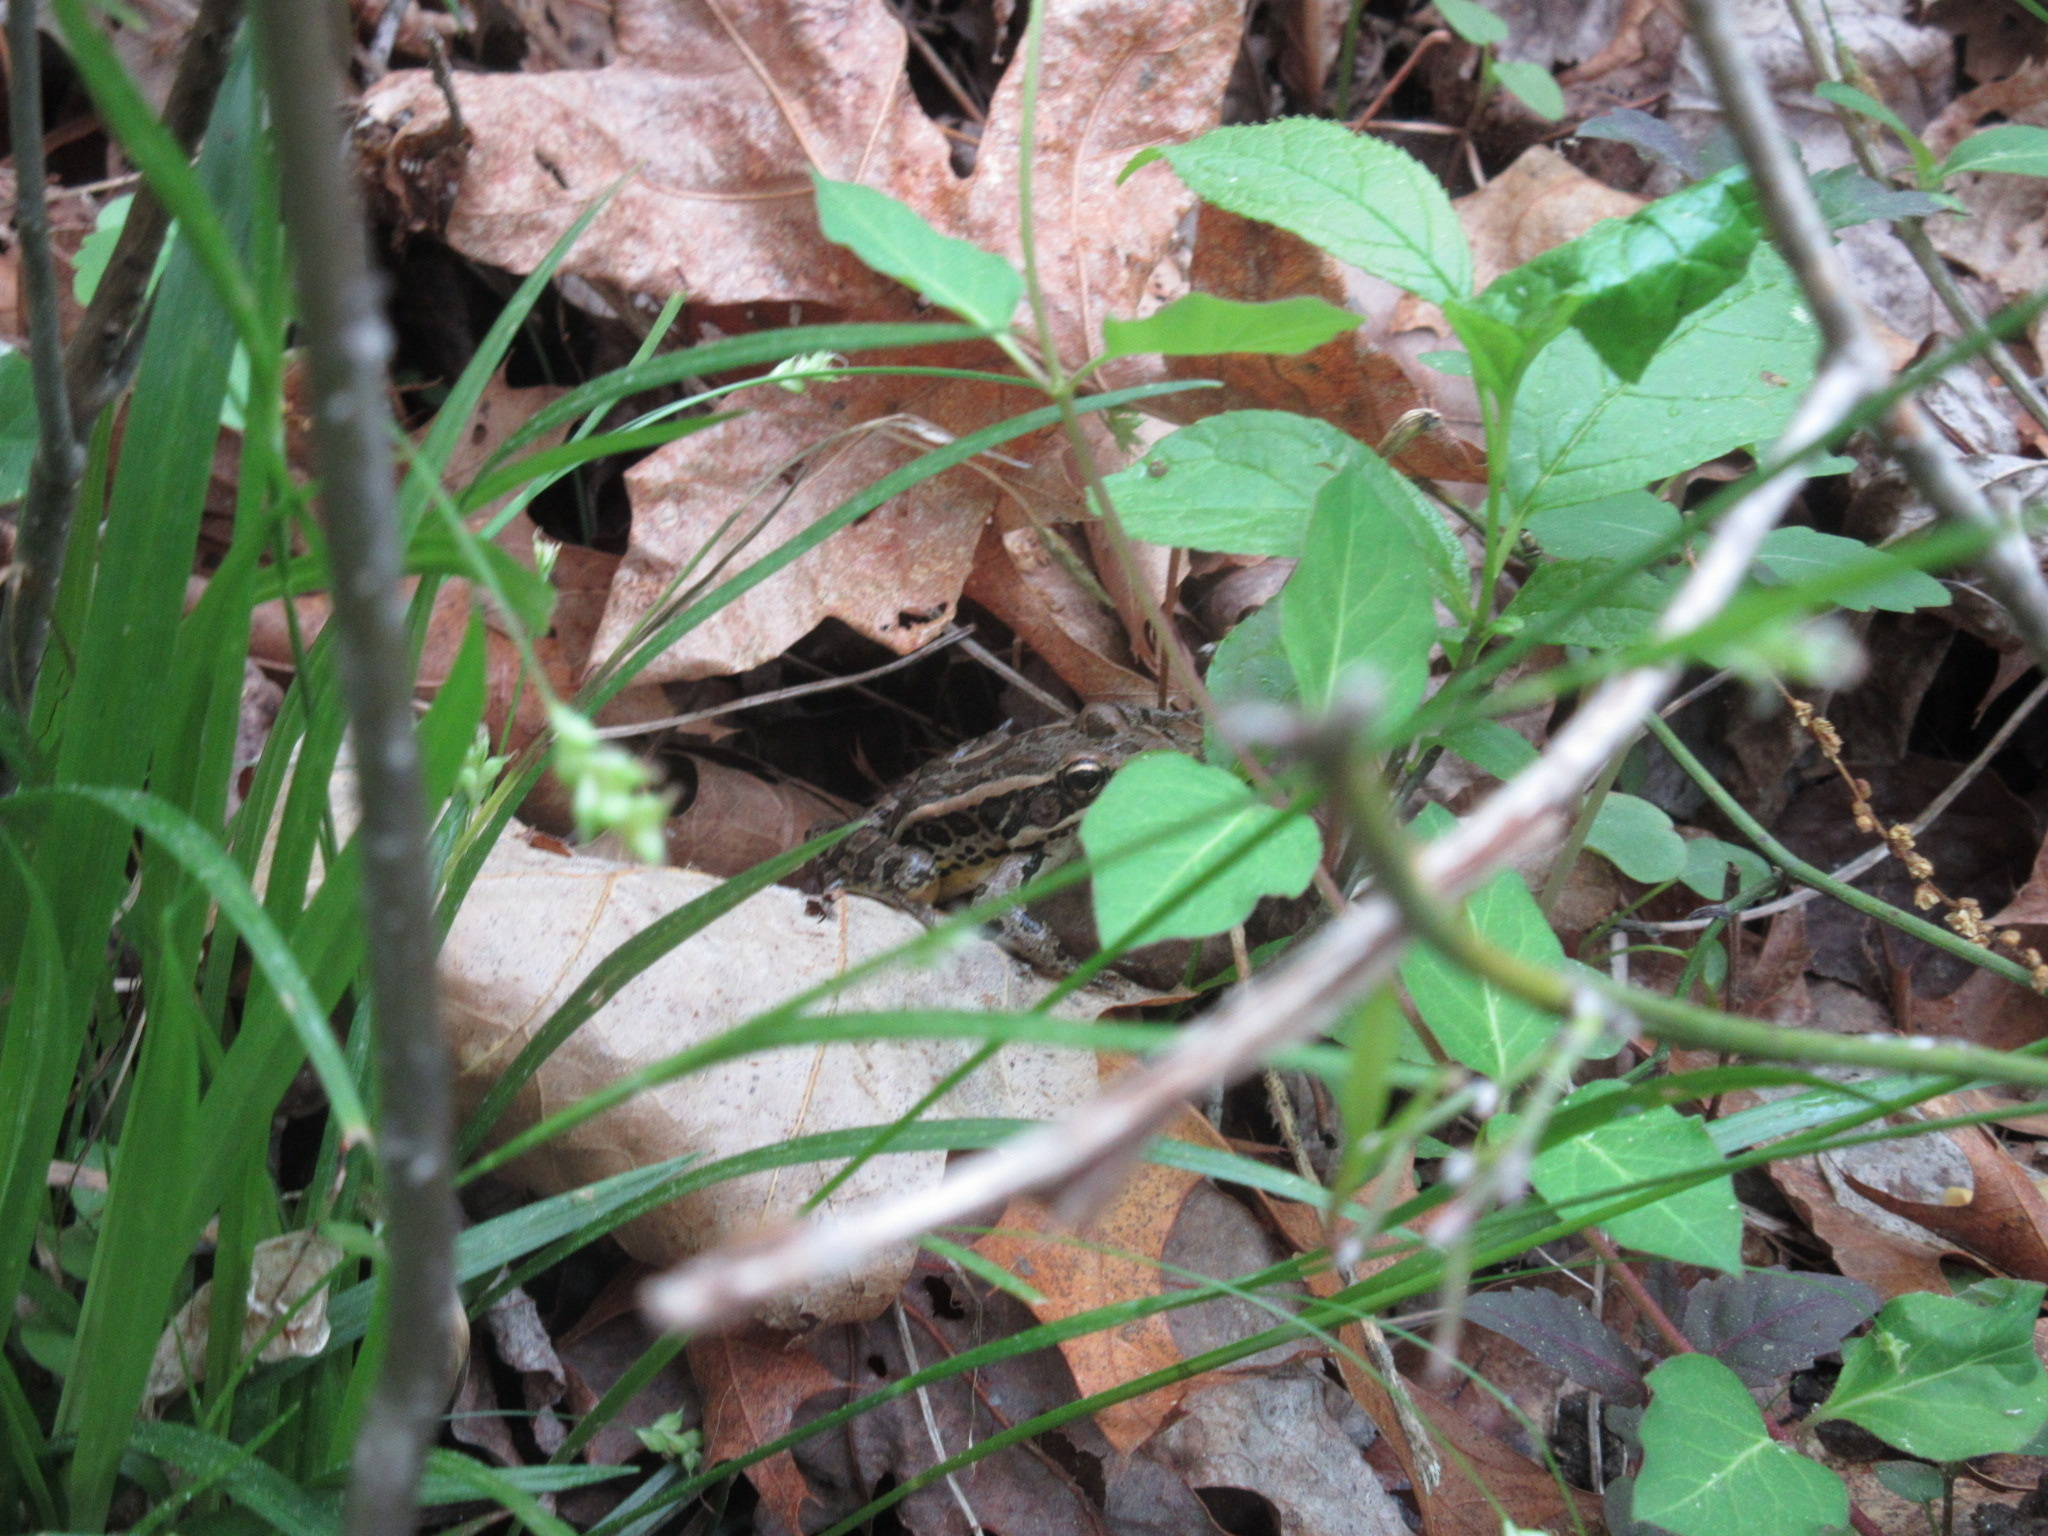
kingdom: Animalia
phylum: Chordata
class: Amphibia
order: Anura
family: Ranidae
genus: Lithobates
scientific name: Lithobates palustris
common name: Pickerel frog
